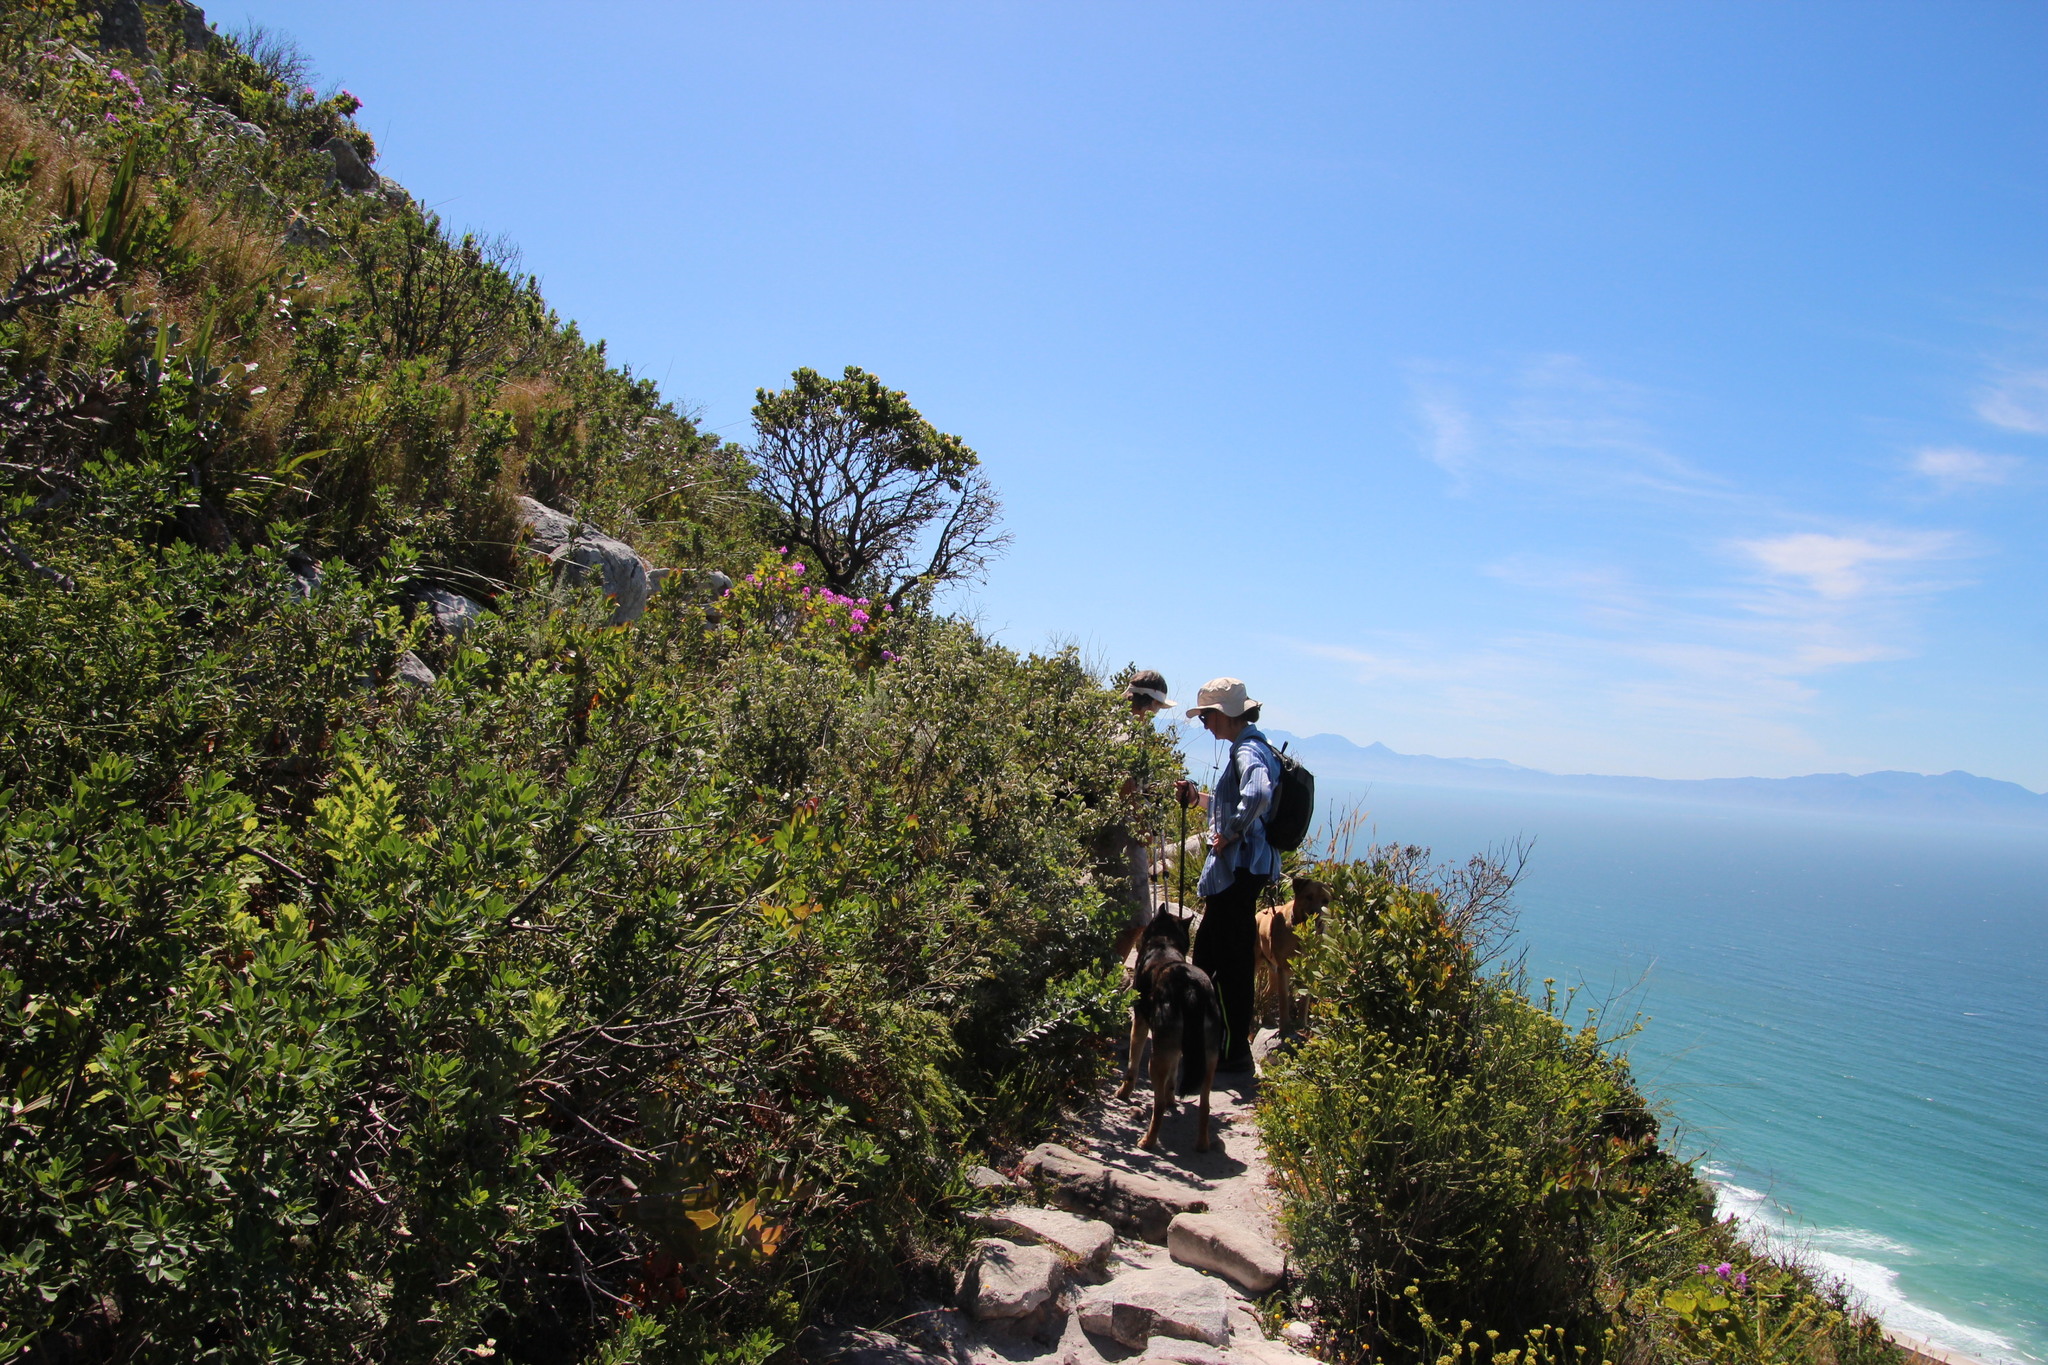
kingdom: Plantae
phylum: Tracheophyta
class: Magnoliopsida
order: Fabales
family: Fabaceae
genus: Podalyria
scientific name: Podalyria calyptrata
